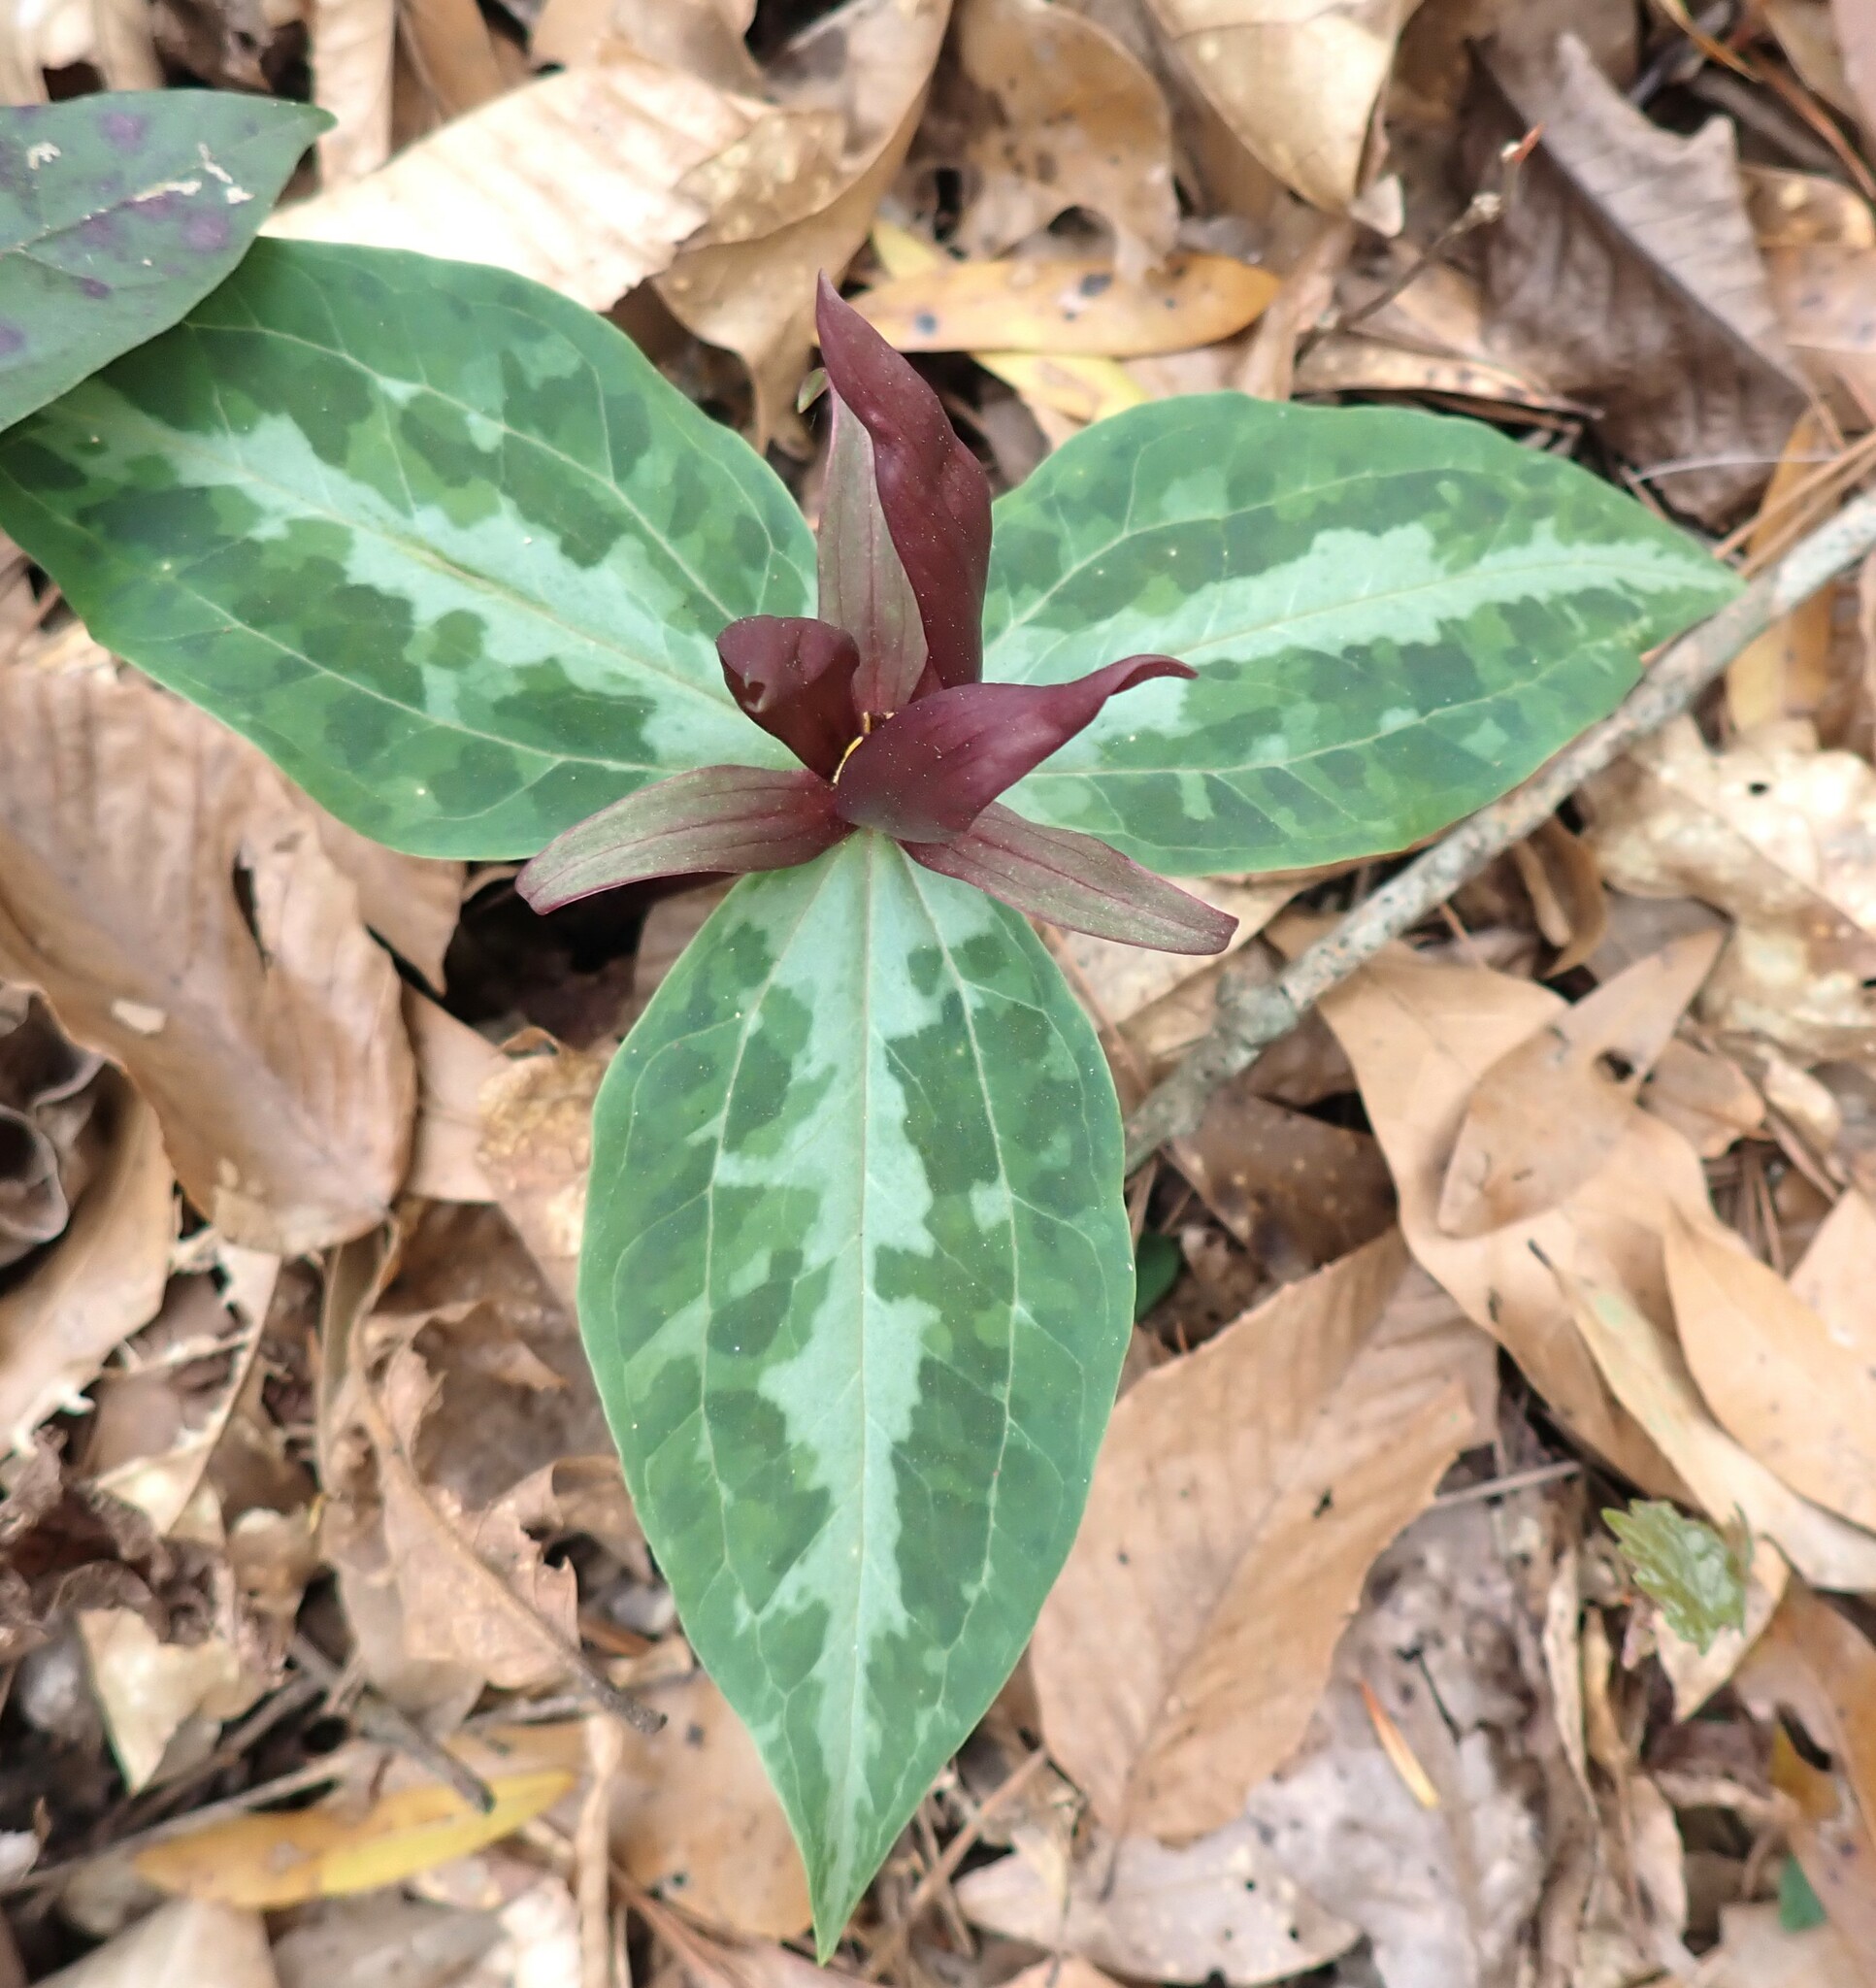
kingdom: Plantae
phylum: Tracheophyta
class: Liliopsida
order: Liliales
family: Melanthiaceae
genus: Trillium
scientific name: Trillium underwoodii
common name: Longbract wakerobin
